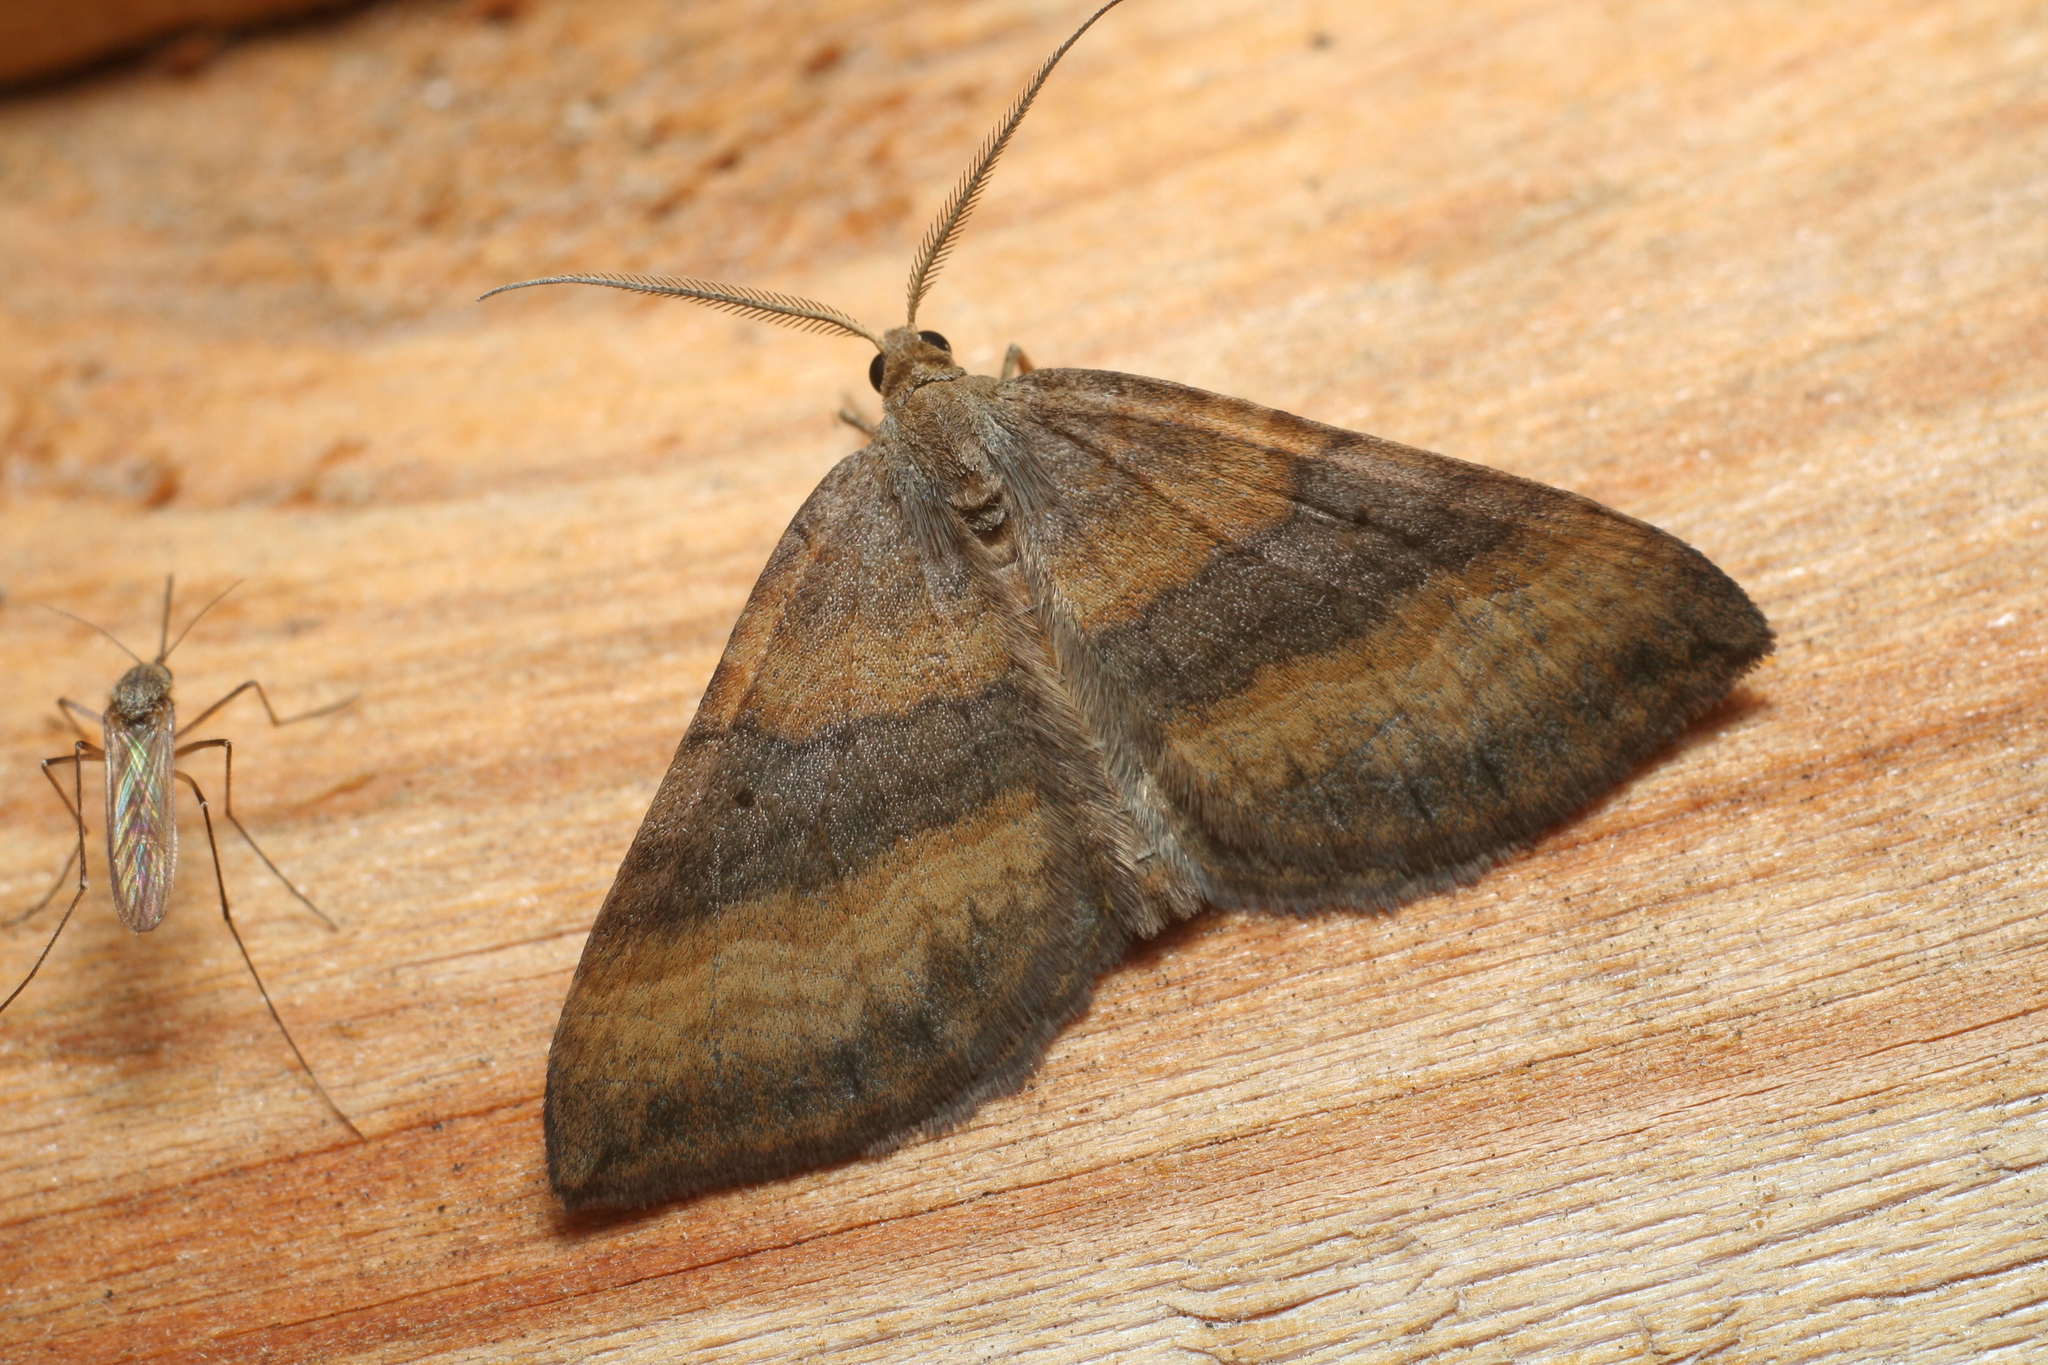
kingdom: Animalia
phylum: Arthropoda
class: Insecta
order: Lepidoptera
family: Geometridae
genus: Scotopteryx
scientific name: Scotopteryx chenopodiata
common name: Shaded broad-bar
